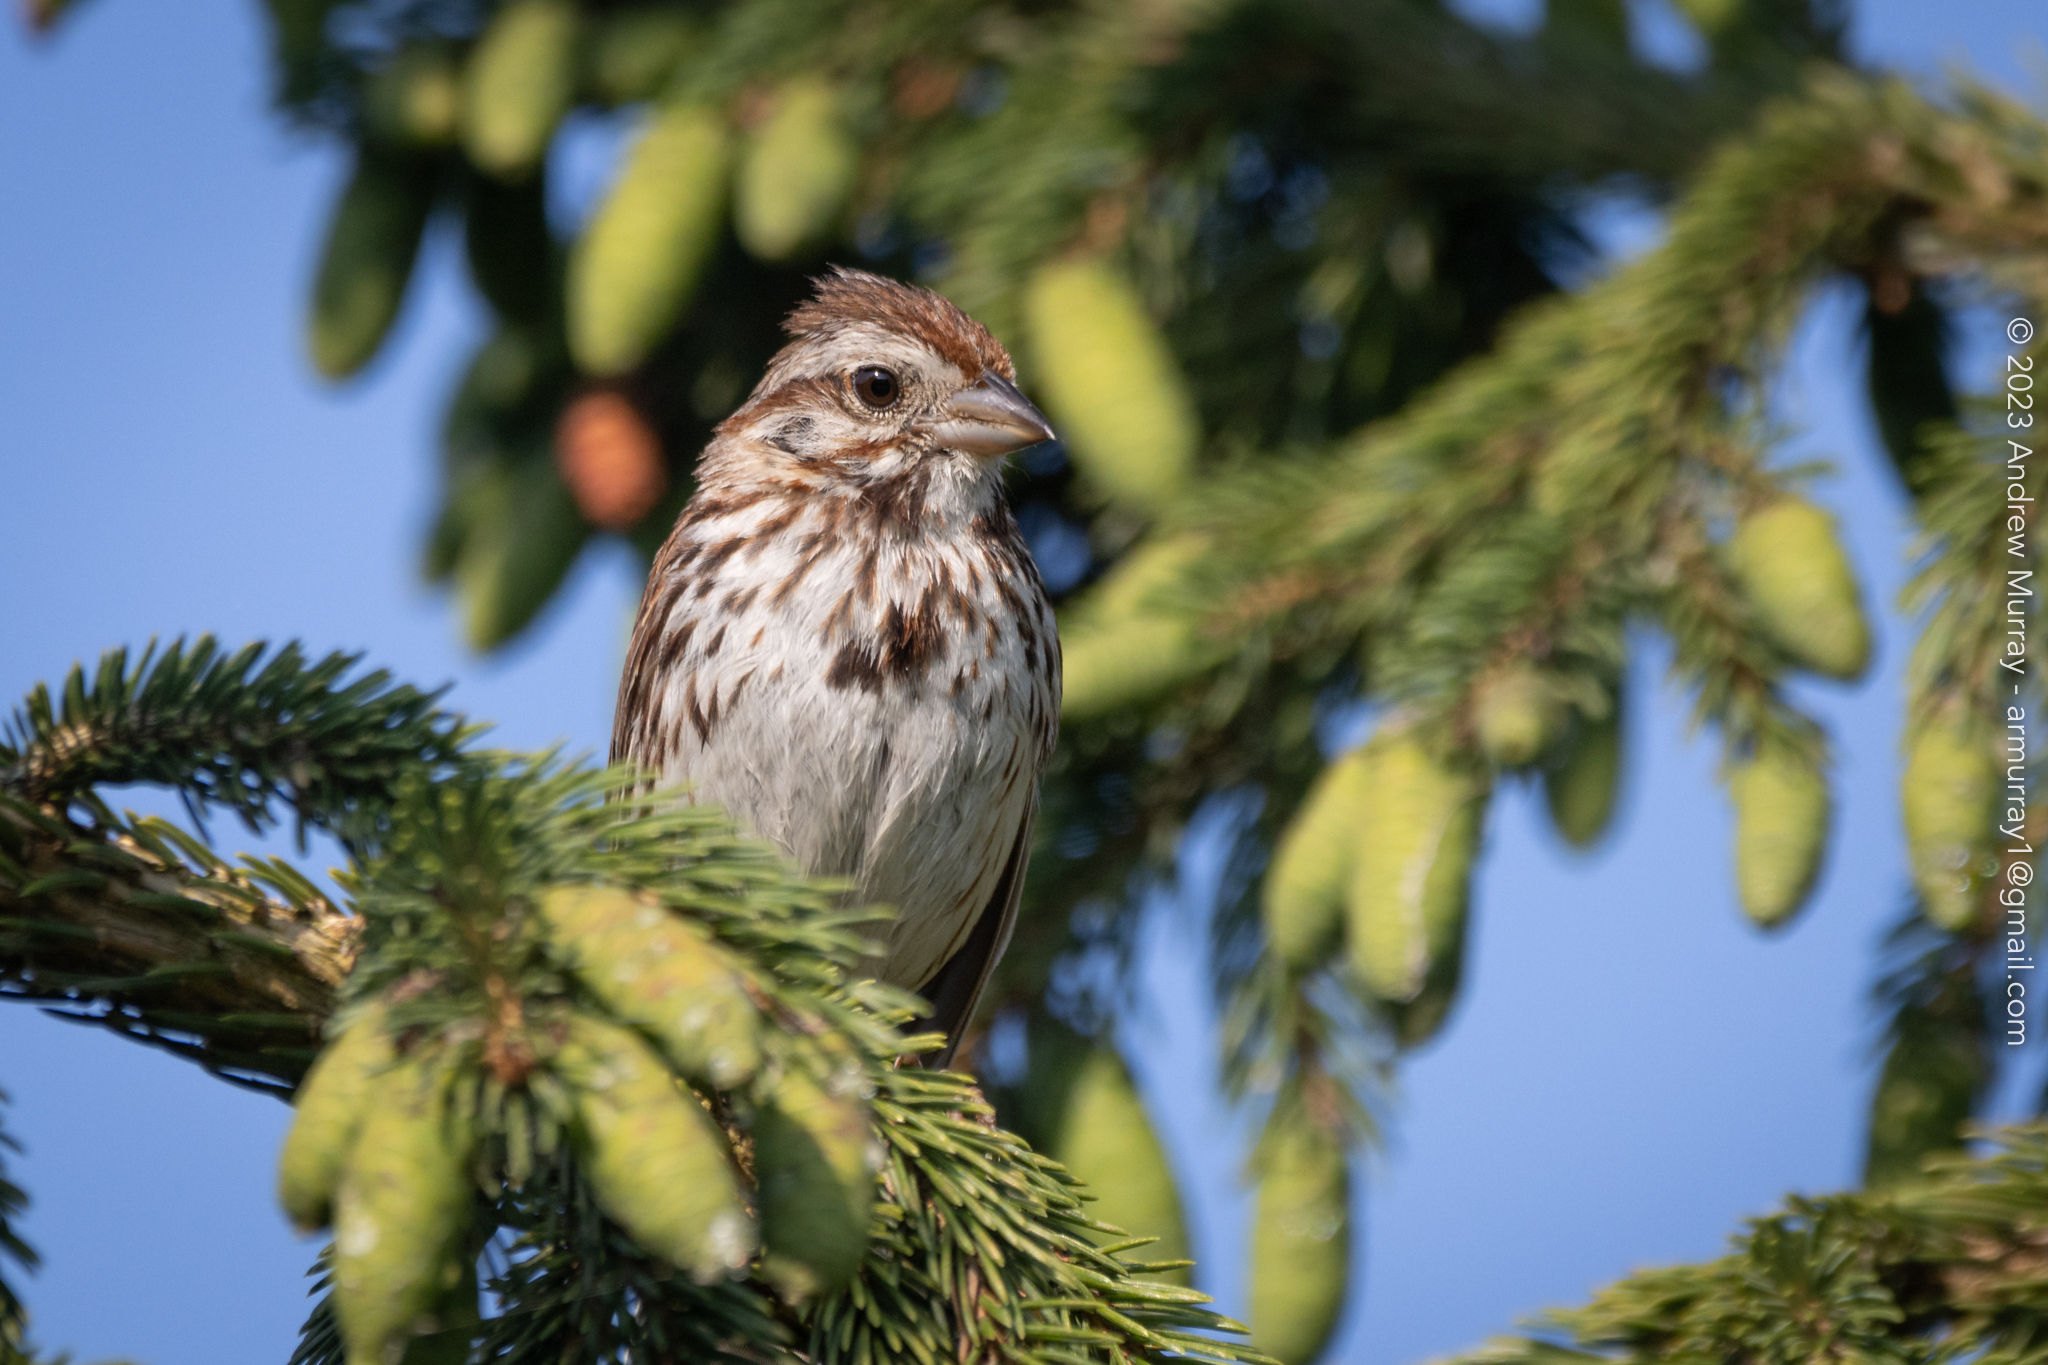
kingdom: Animalia
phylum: Chordata
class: Aves
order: Passeriformes
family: Passerellidae
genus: Melospiza
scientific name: Melospiza melodia
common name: Song sparrow
